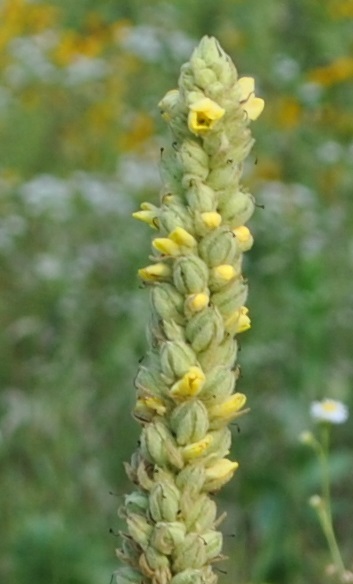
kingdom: Plantae
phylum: Tracheophyta
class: Magnoliopsida
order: Lamiales
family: Scrophulariaceae
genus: Verbascum
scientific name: Verbascum thapsus
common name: Common mullein
